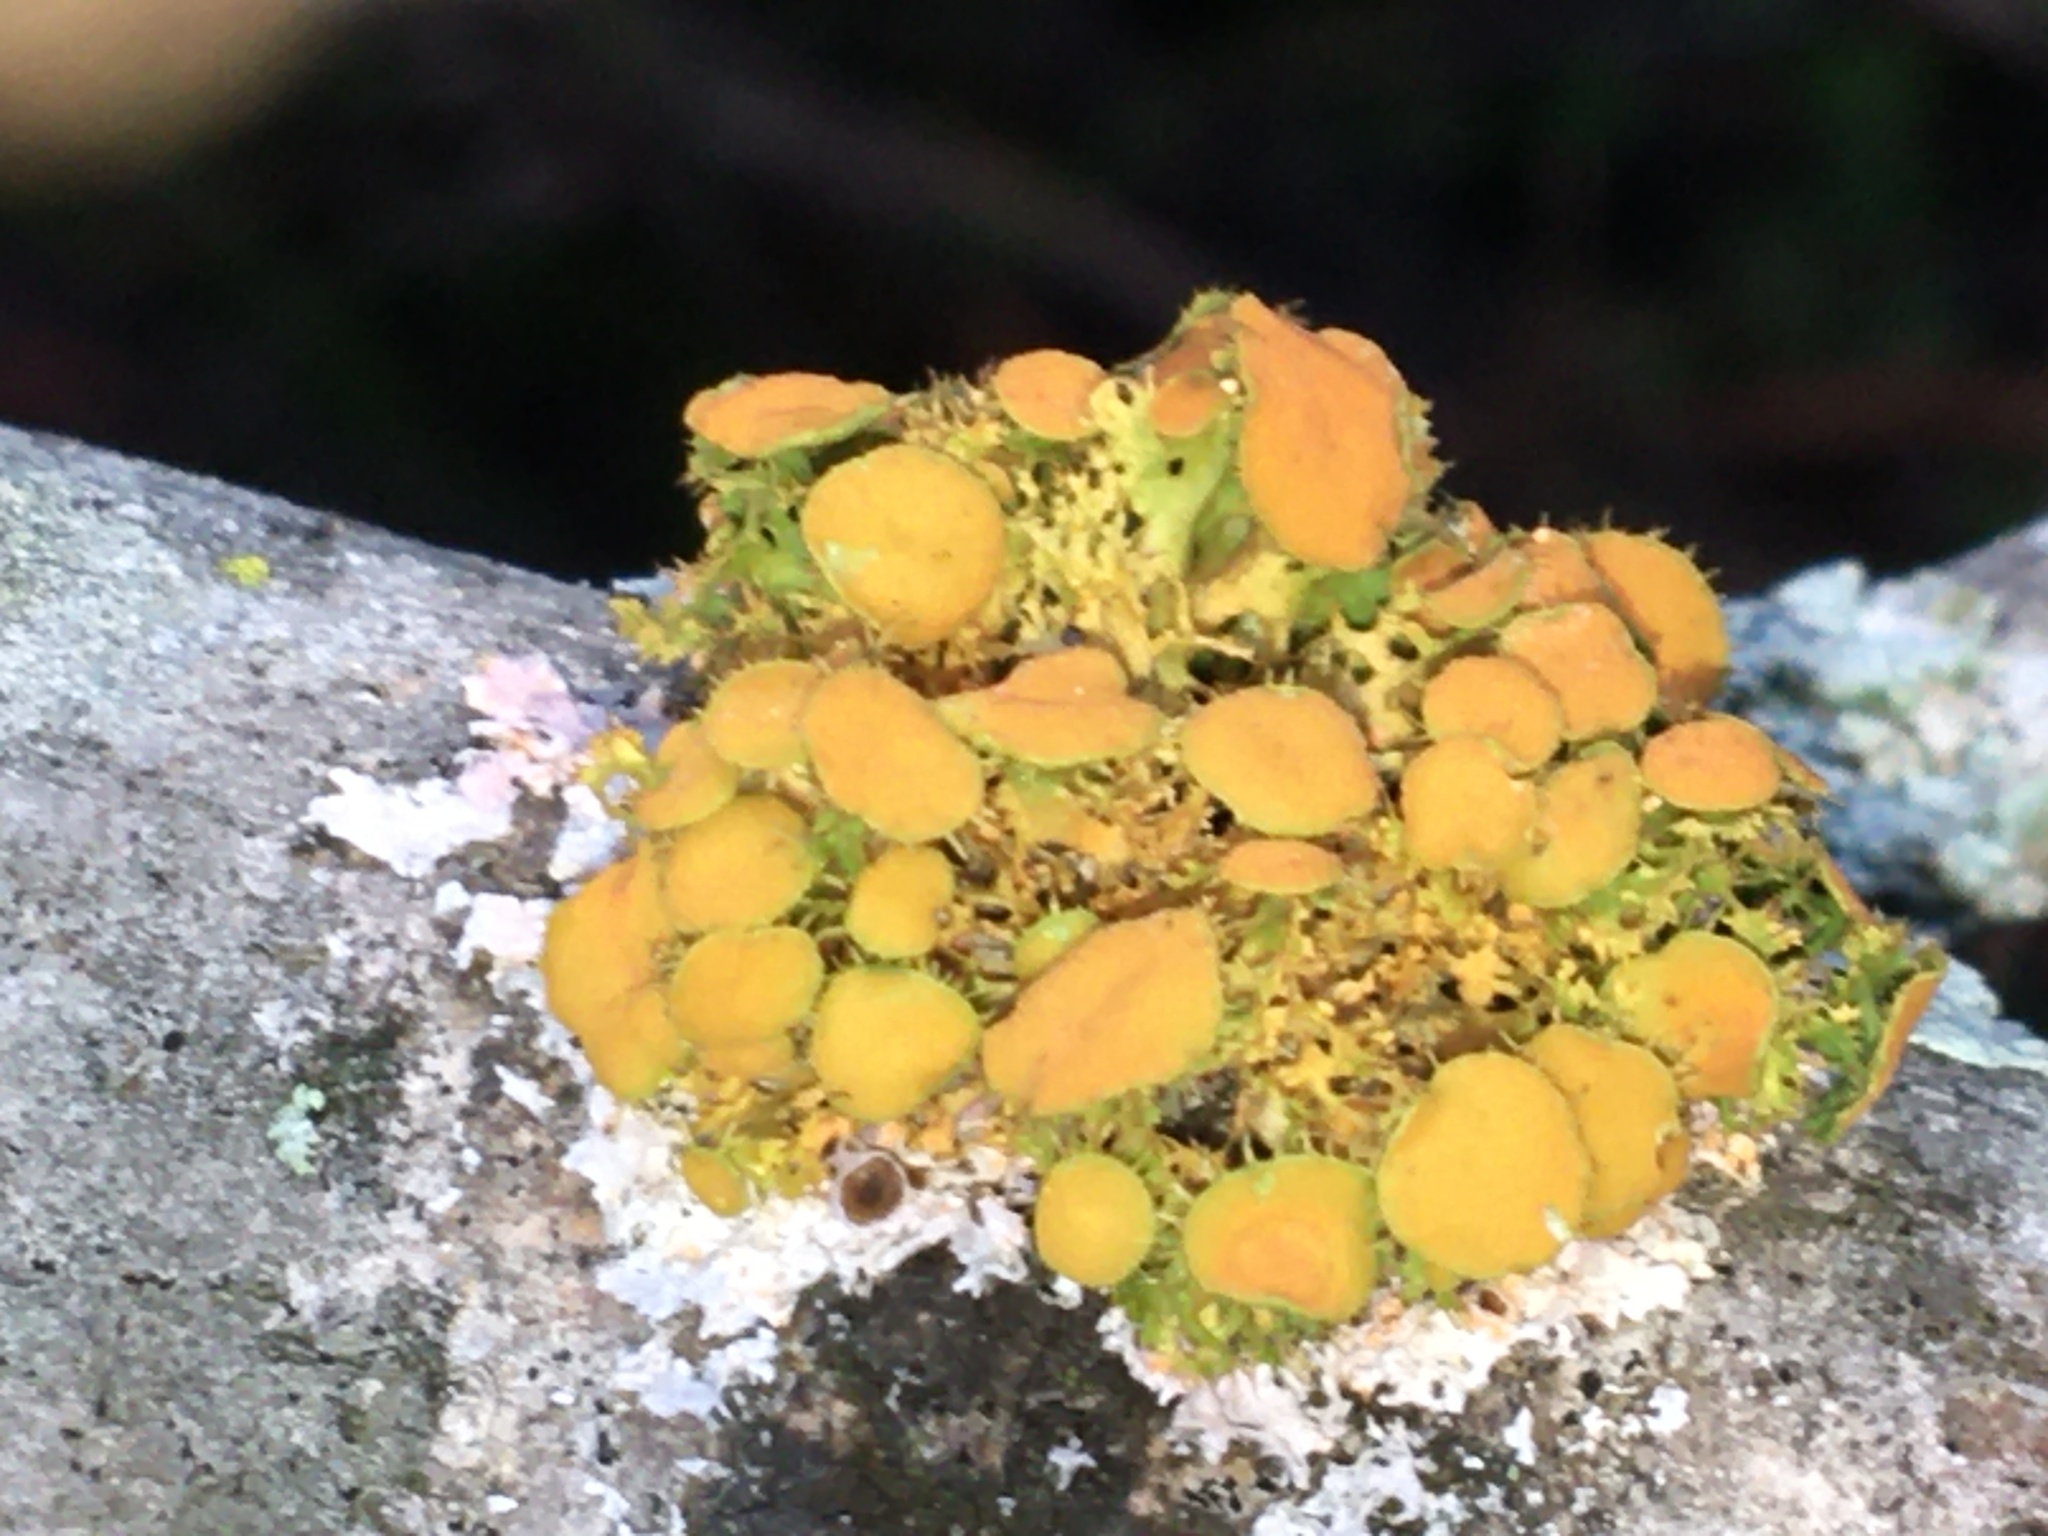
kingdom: Fungi
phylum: Ascomycota
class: Lecanoromycetes
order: Teloschistales
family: Teloschistaceae
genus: Niorma
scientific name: Niorma chrysophthalma
